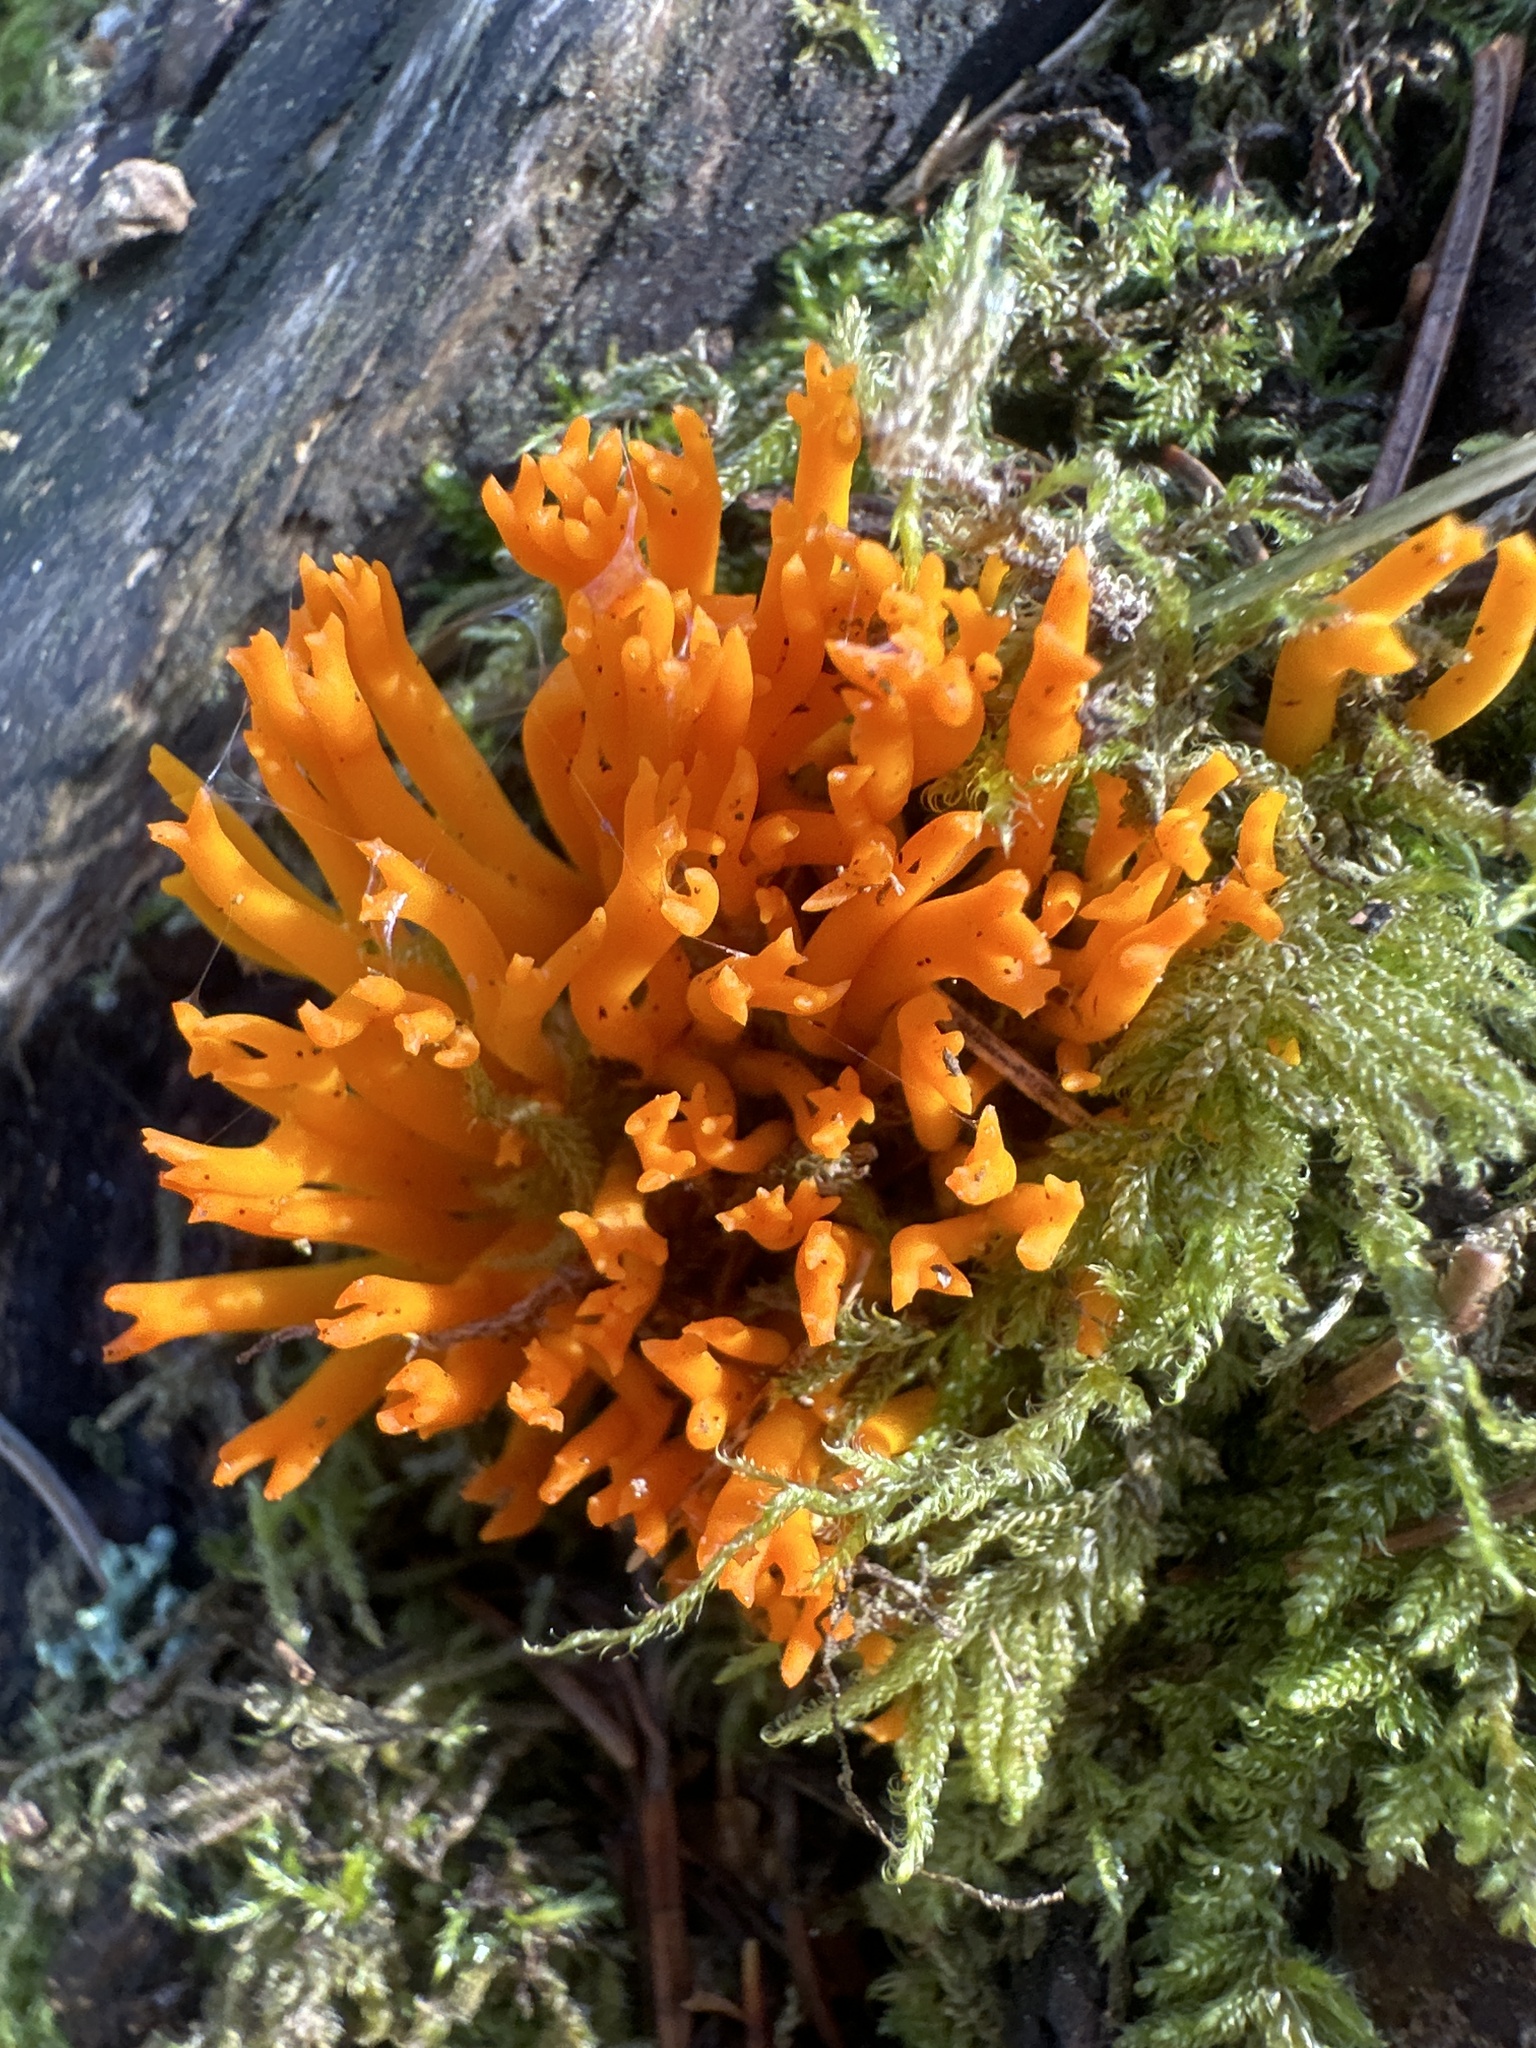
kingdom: Fungi
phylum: Basidiomycota
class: Dacrymycetes
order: Dacrymycetales
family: Dacrymycetaceae
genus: Calocera
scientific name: Calocera viscosa
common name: Yellow stagshorn
